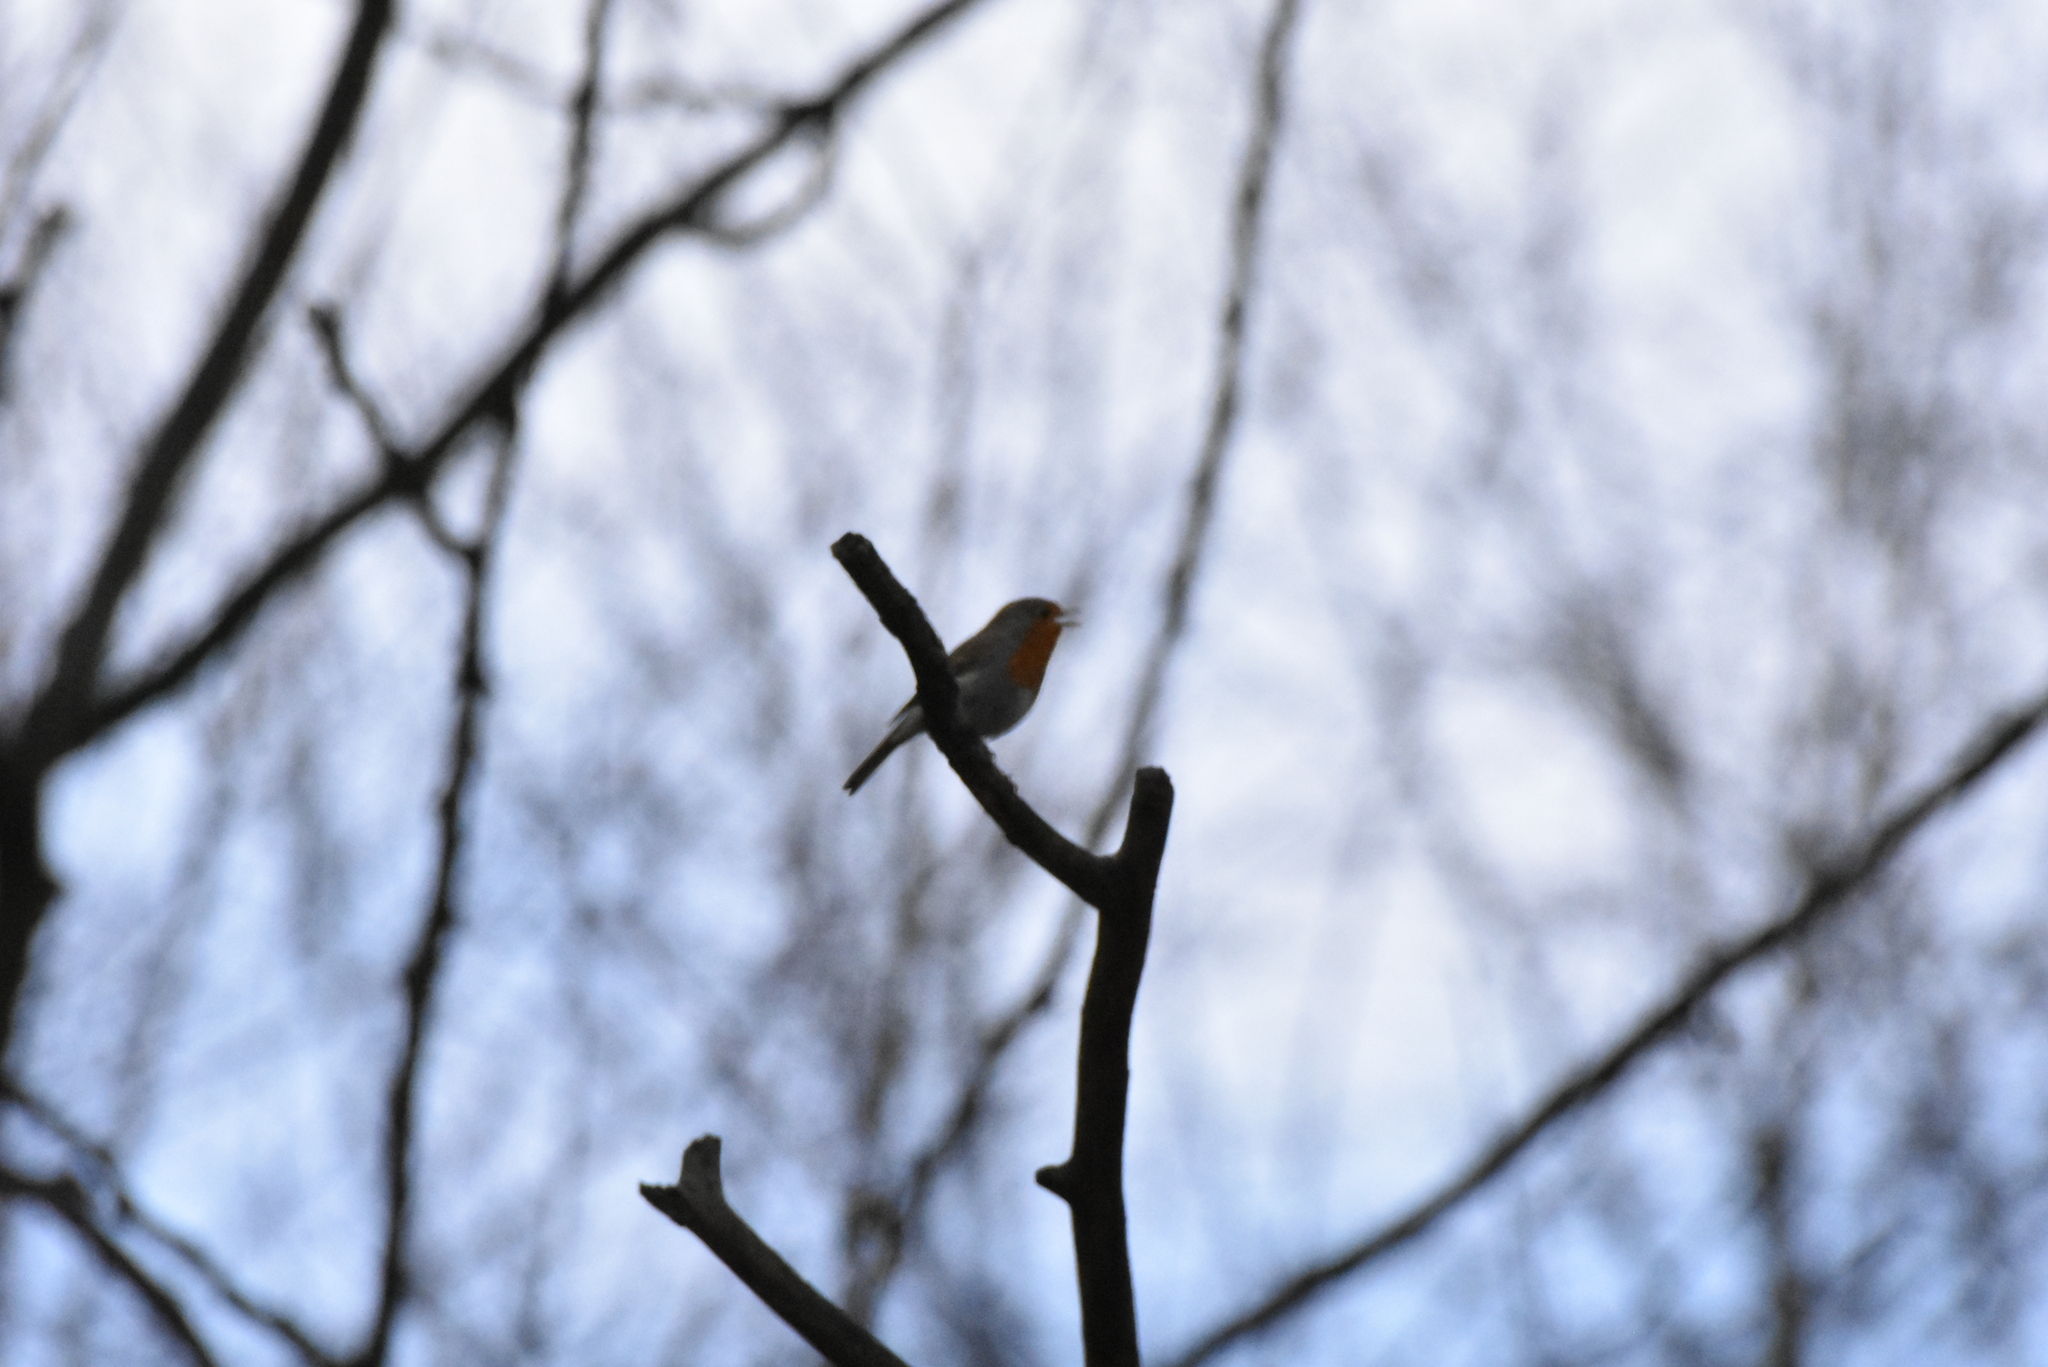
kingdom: Animalia
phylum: Chordata
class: Aves
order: Passeriformes
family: Muscicapidae
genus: Erithacus
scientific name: Erithacus rubecula
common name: European robin
